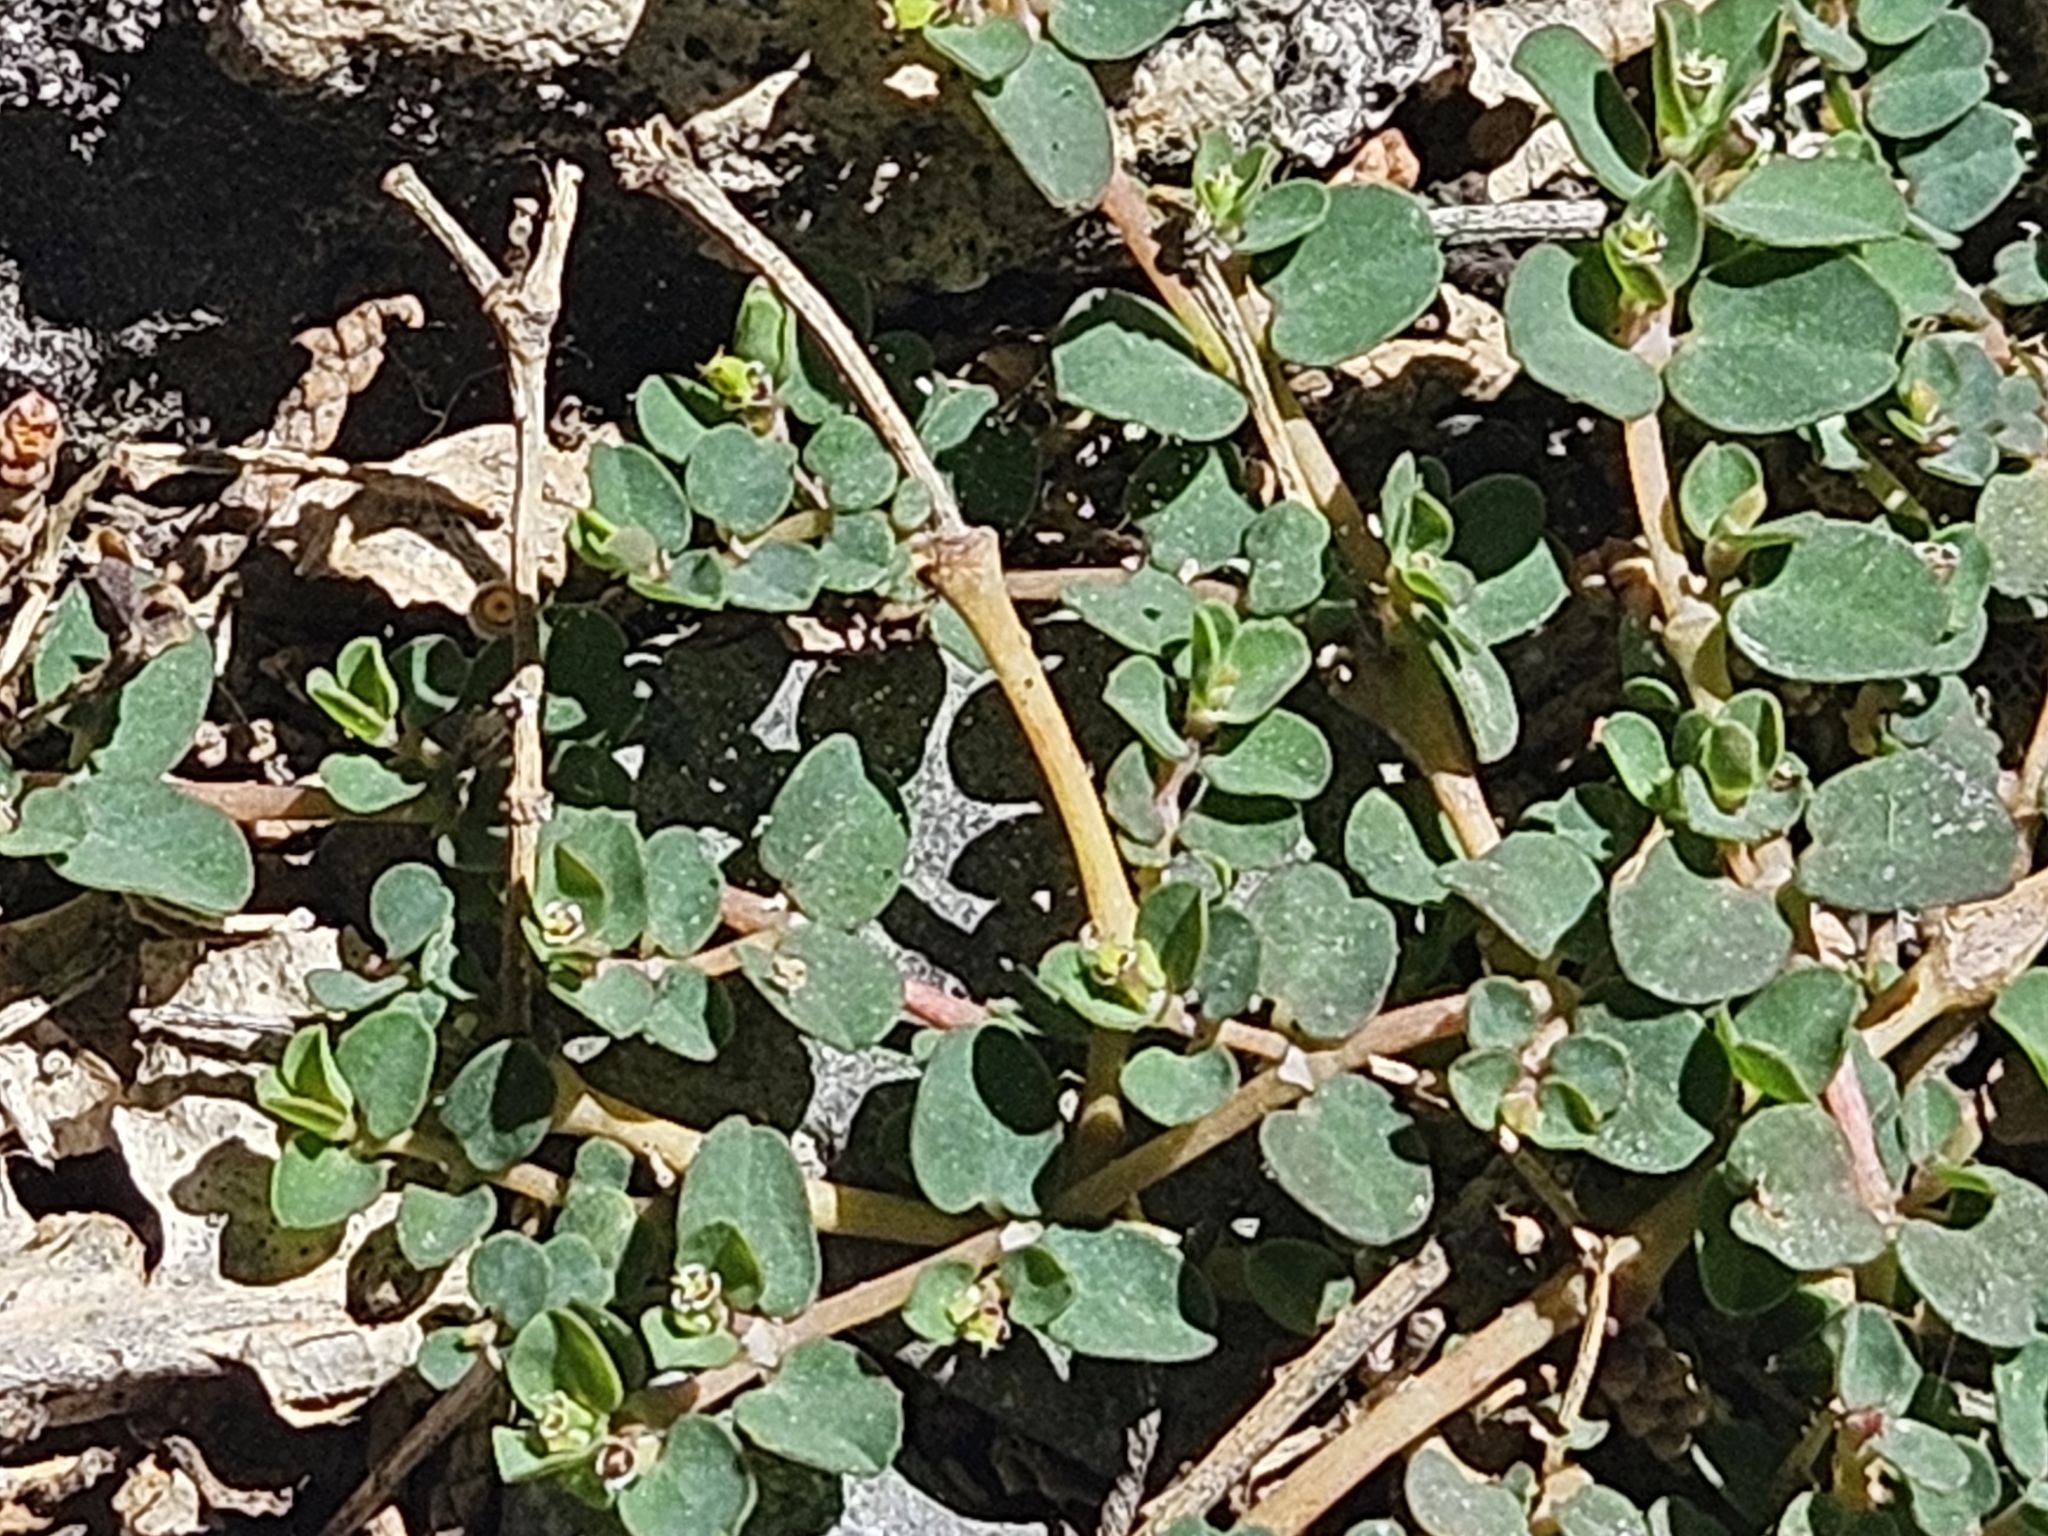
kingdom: Plantae
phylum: Tracheophyta
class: Magnoliopsida
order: Malpighiales
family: Euphorbiaceae
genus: Euphorbia
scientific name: Euphorbia serpens
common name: Matted sandmat
